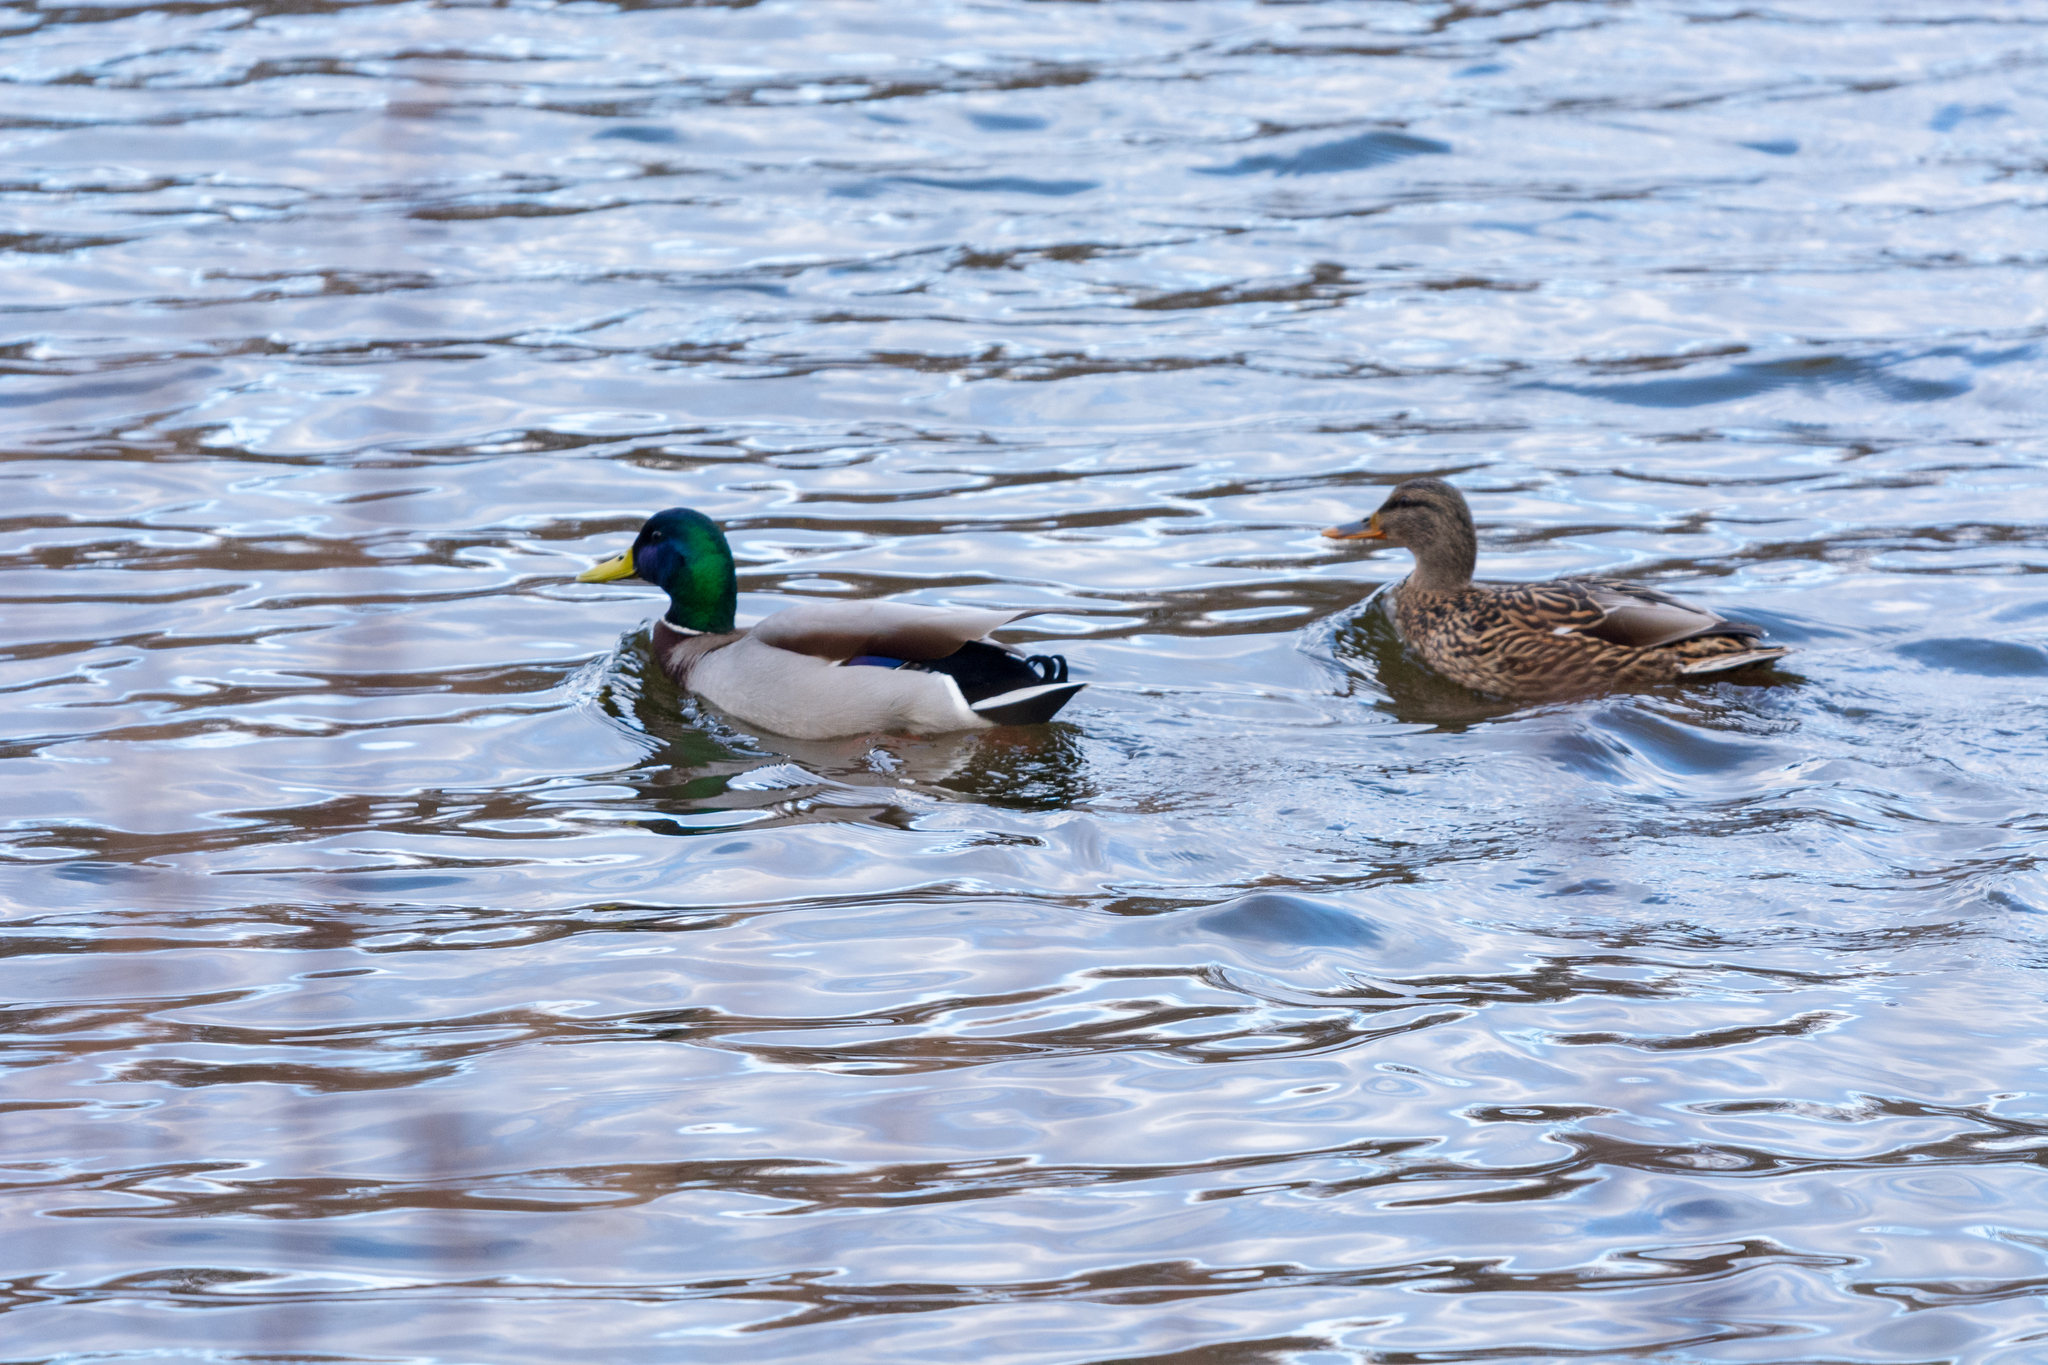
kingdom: Animalia
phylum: Chordata
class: Aves
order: Anseriformes
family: Anatidae
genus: Anas
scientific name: Anas platyrhynchos
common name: Mallard
